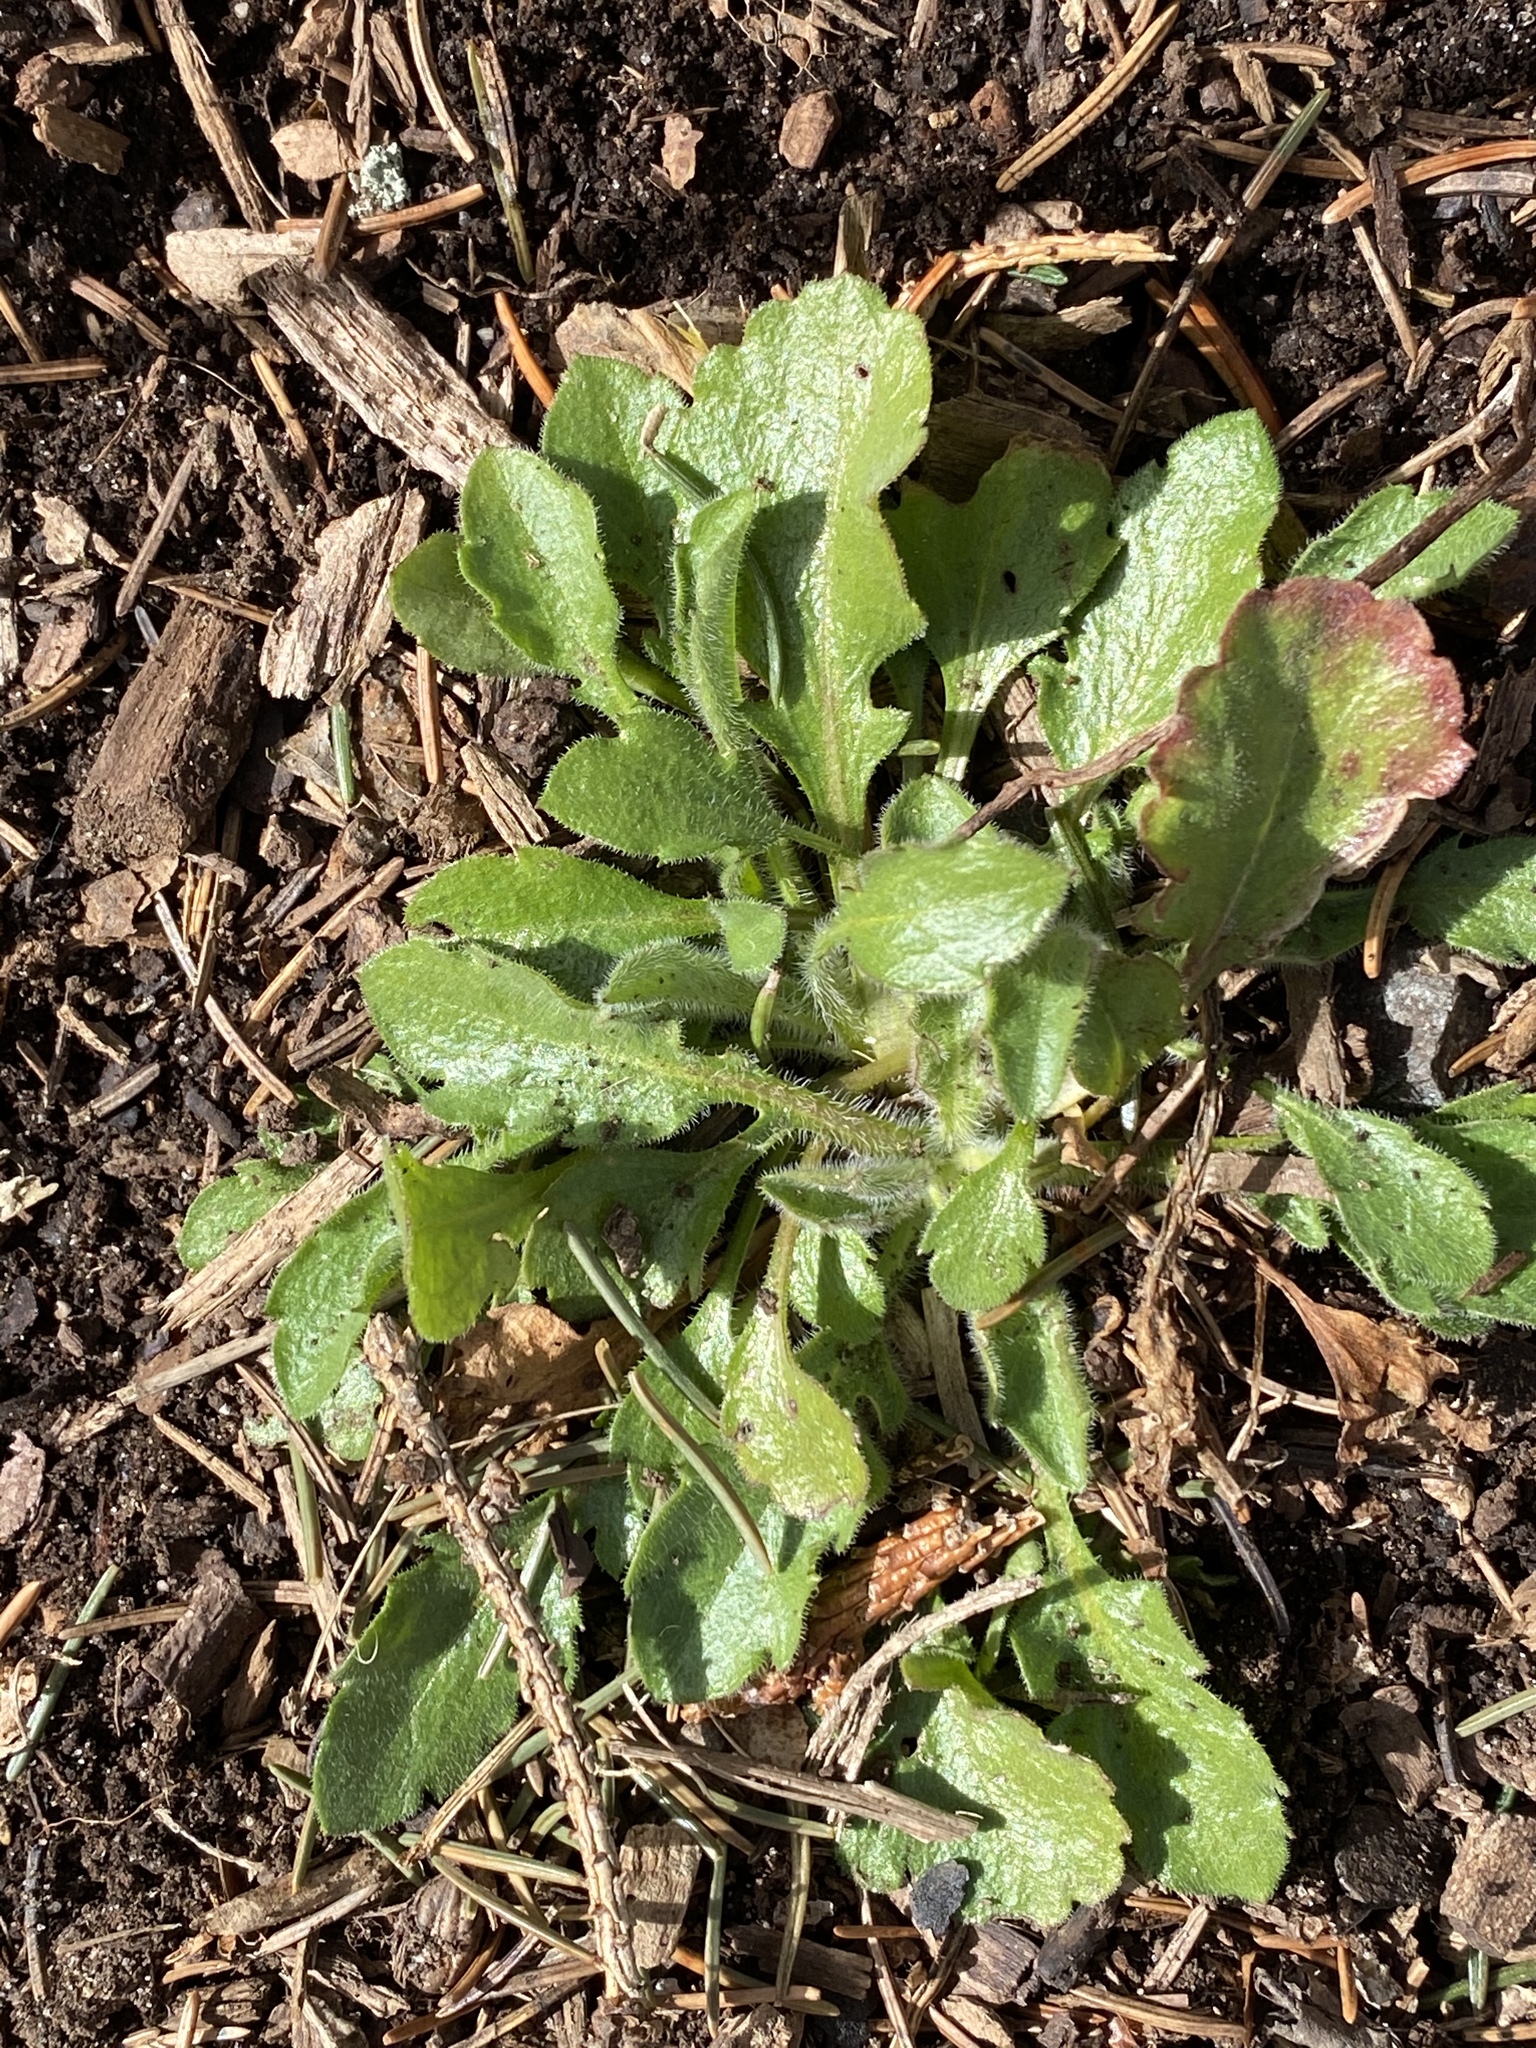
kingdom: Plantae
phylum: Tracheophyta
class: Magnoliopsida
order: Asterales
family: Asteraceae
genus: Erigeron
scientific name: Erigeron canadensis
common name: Canadian fleabane
